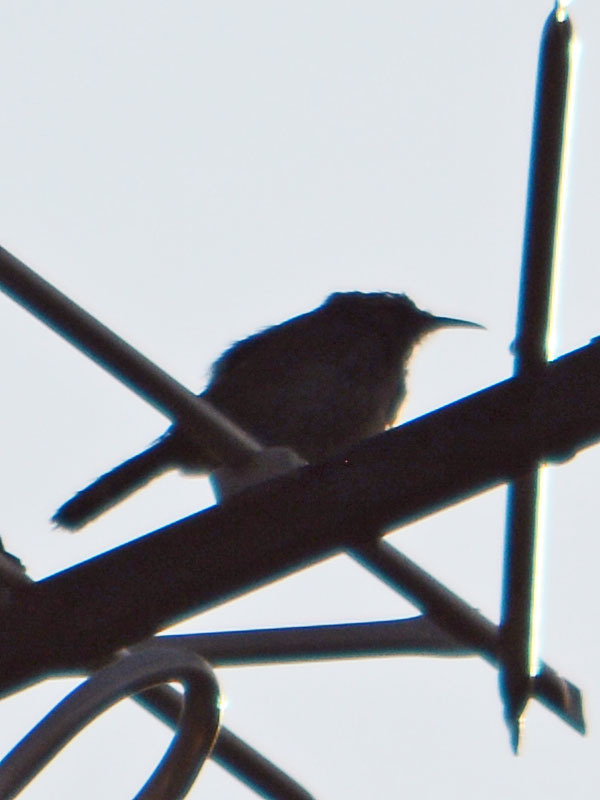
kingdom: Animalia
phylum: Chordata
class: Aves
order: Passeriformes
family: Troglodytidae
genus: Thryomanes
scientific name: Thryomanes bewickii
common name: Bewick's wren
